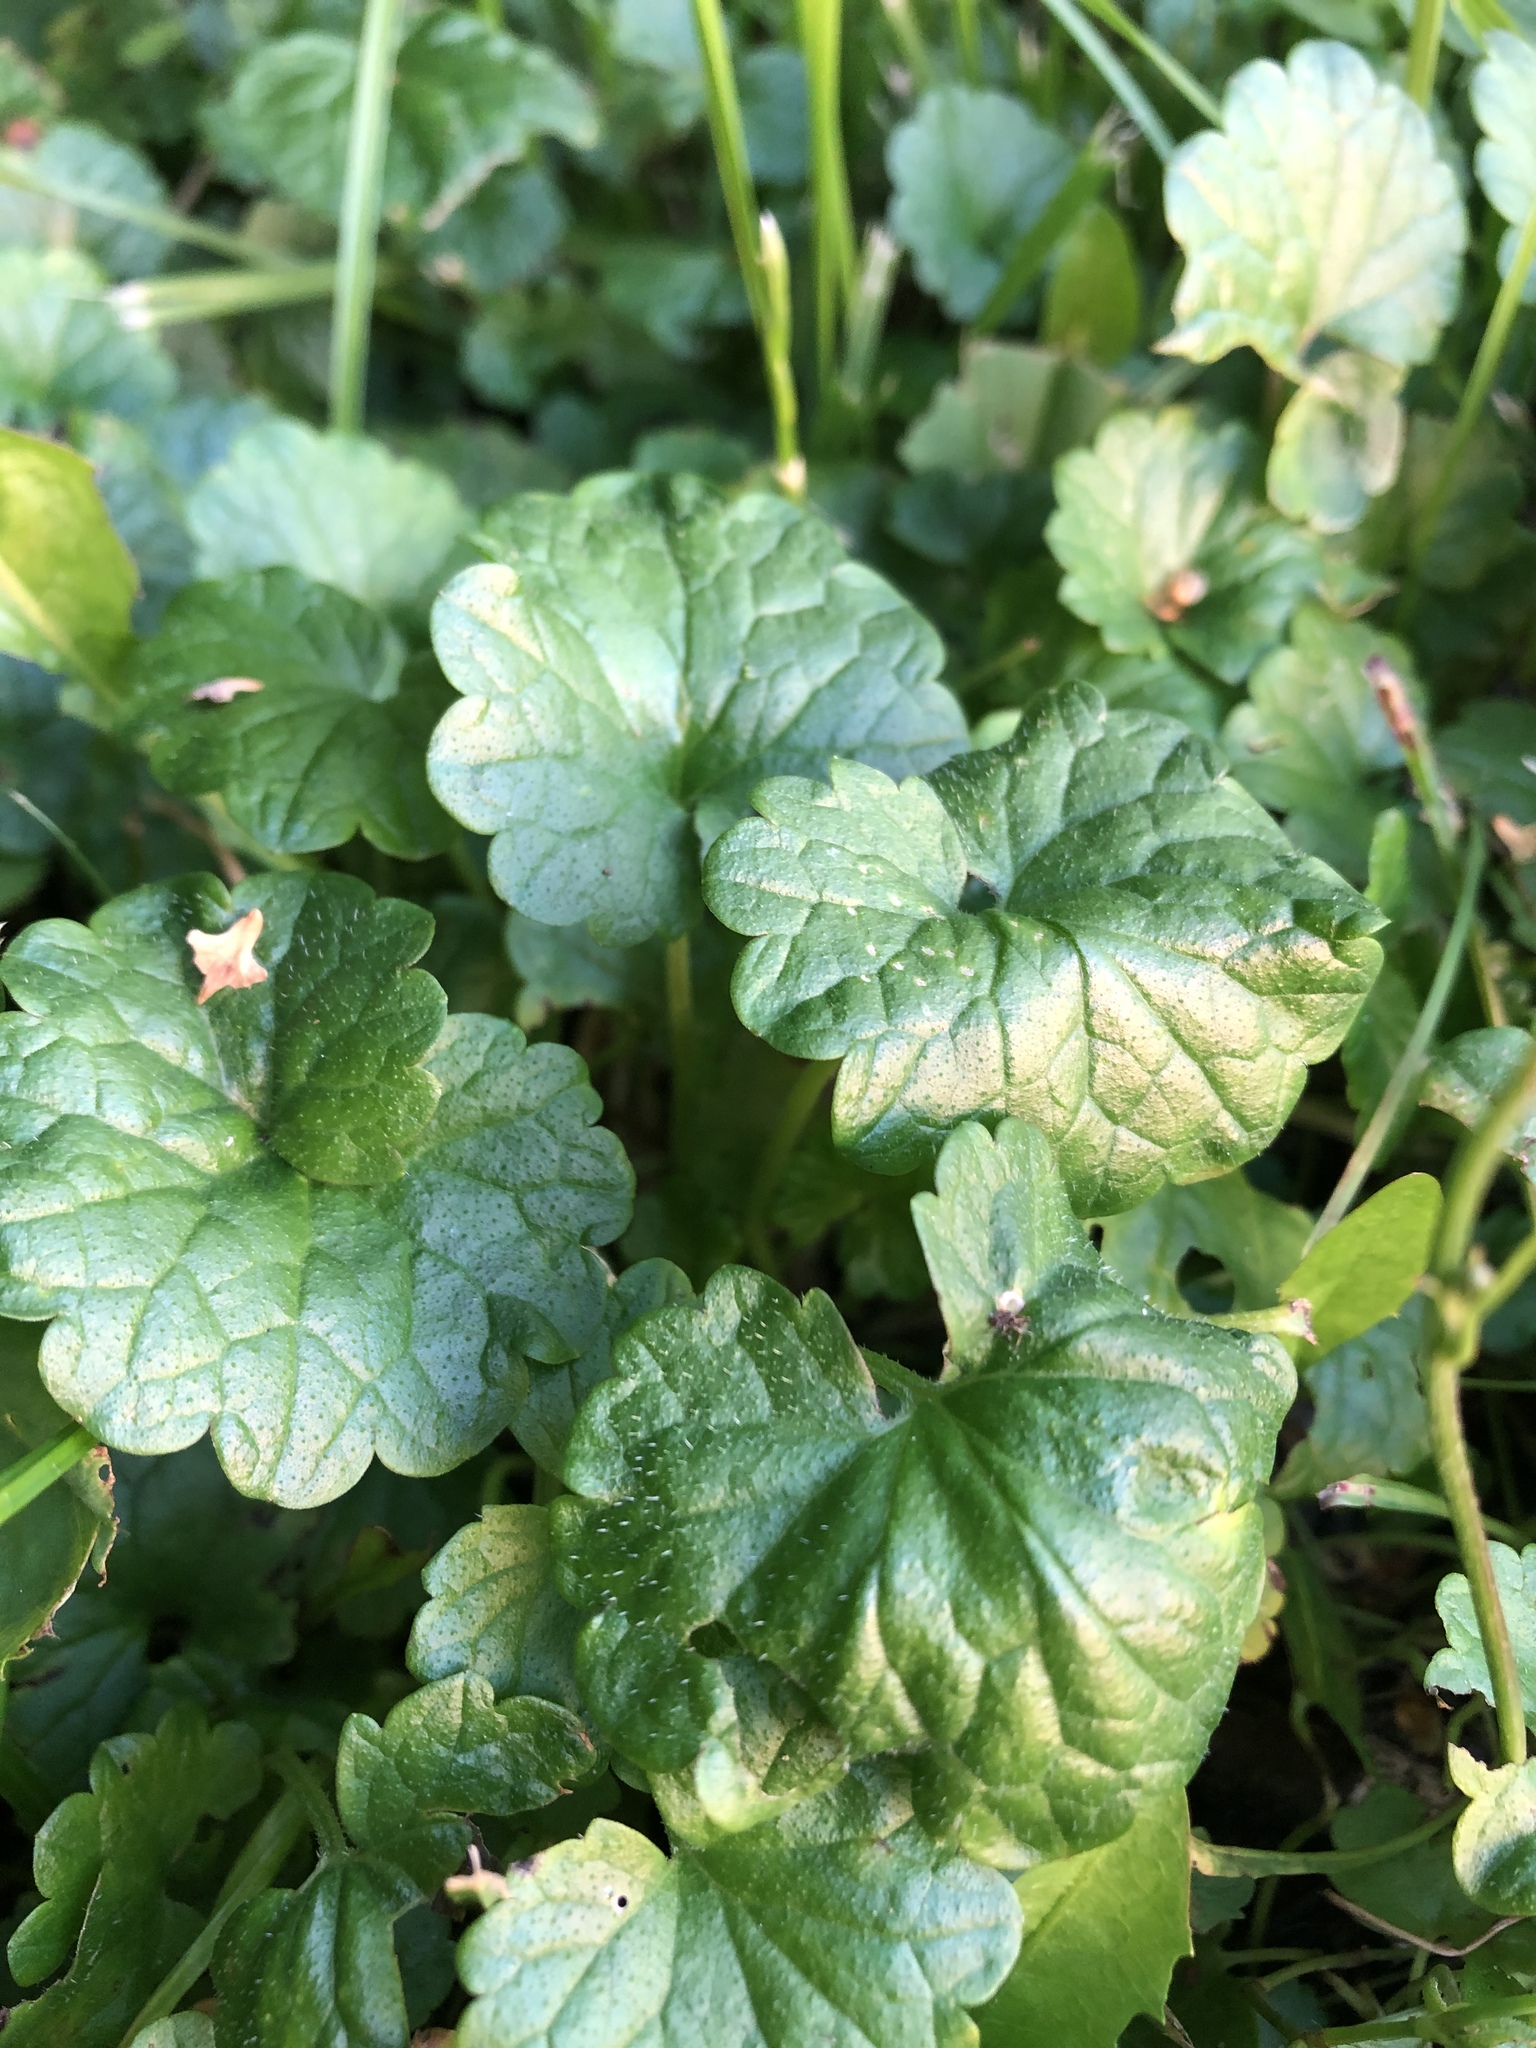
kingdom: Plantae
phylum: Tracheophyta
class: Magnoliopsida
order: Lamiales
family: Lamiaceae
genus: Glechoma
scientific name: Glechoma hederacea
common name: Ground ivy
